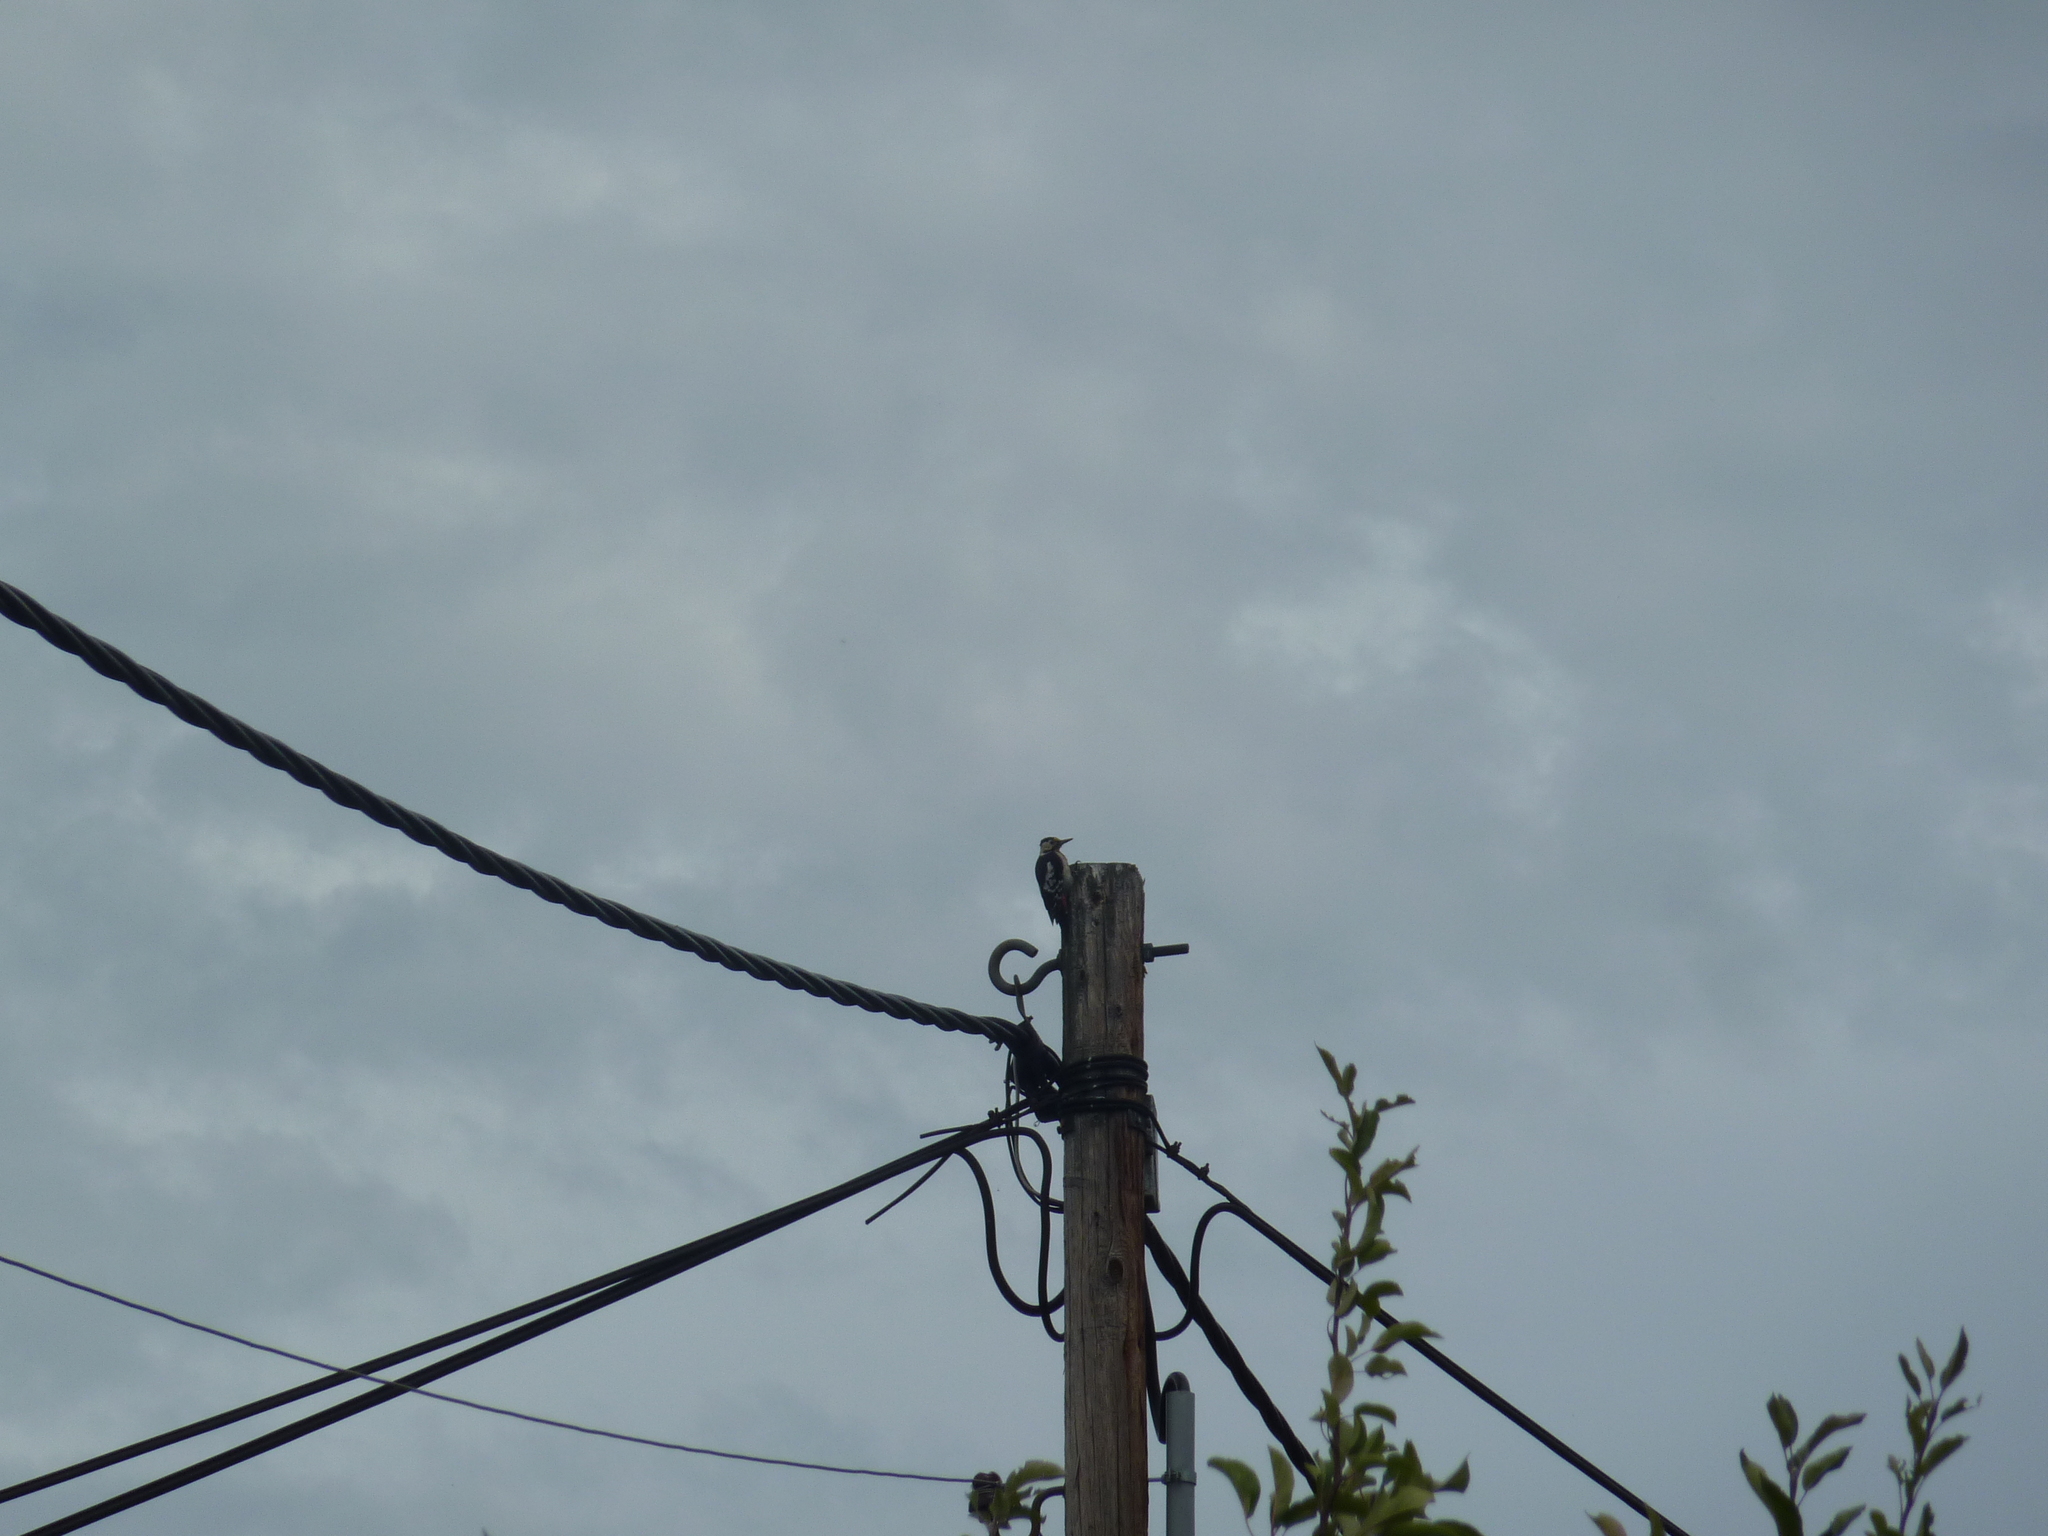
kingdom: Animalia
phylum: Chordata
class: Aves
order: Piciformes
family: Picidae
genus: Dendrocopos
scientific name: Dendrocopos syriacus
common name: Syrian woodpecker
